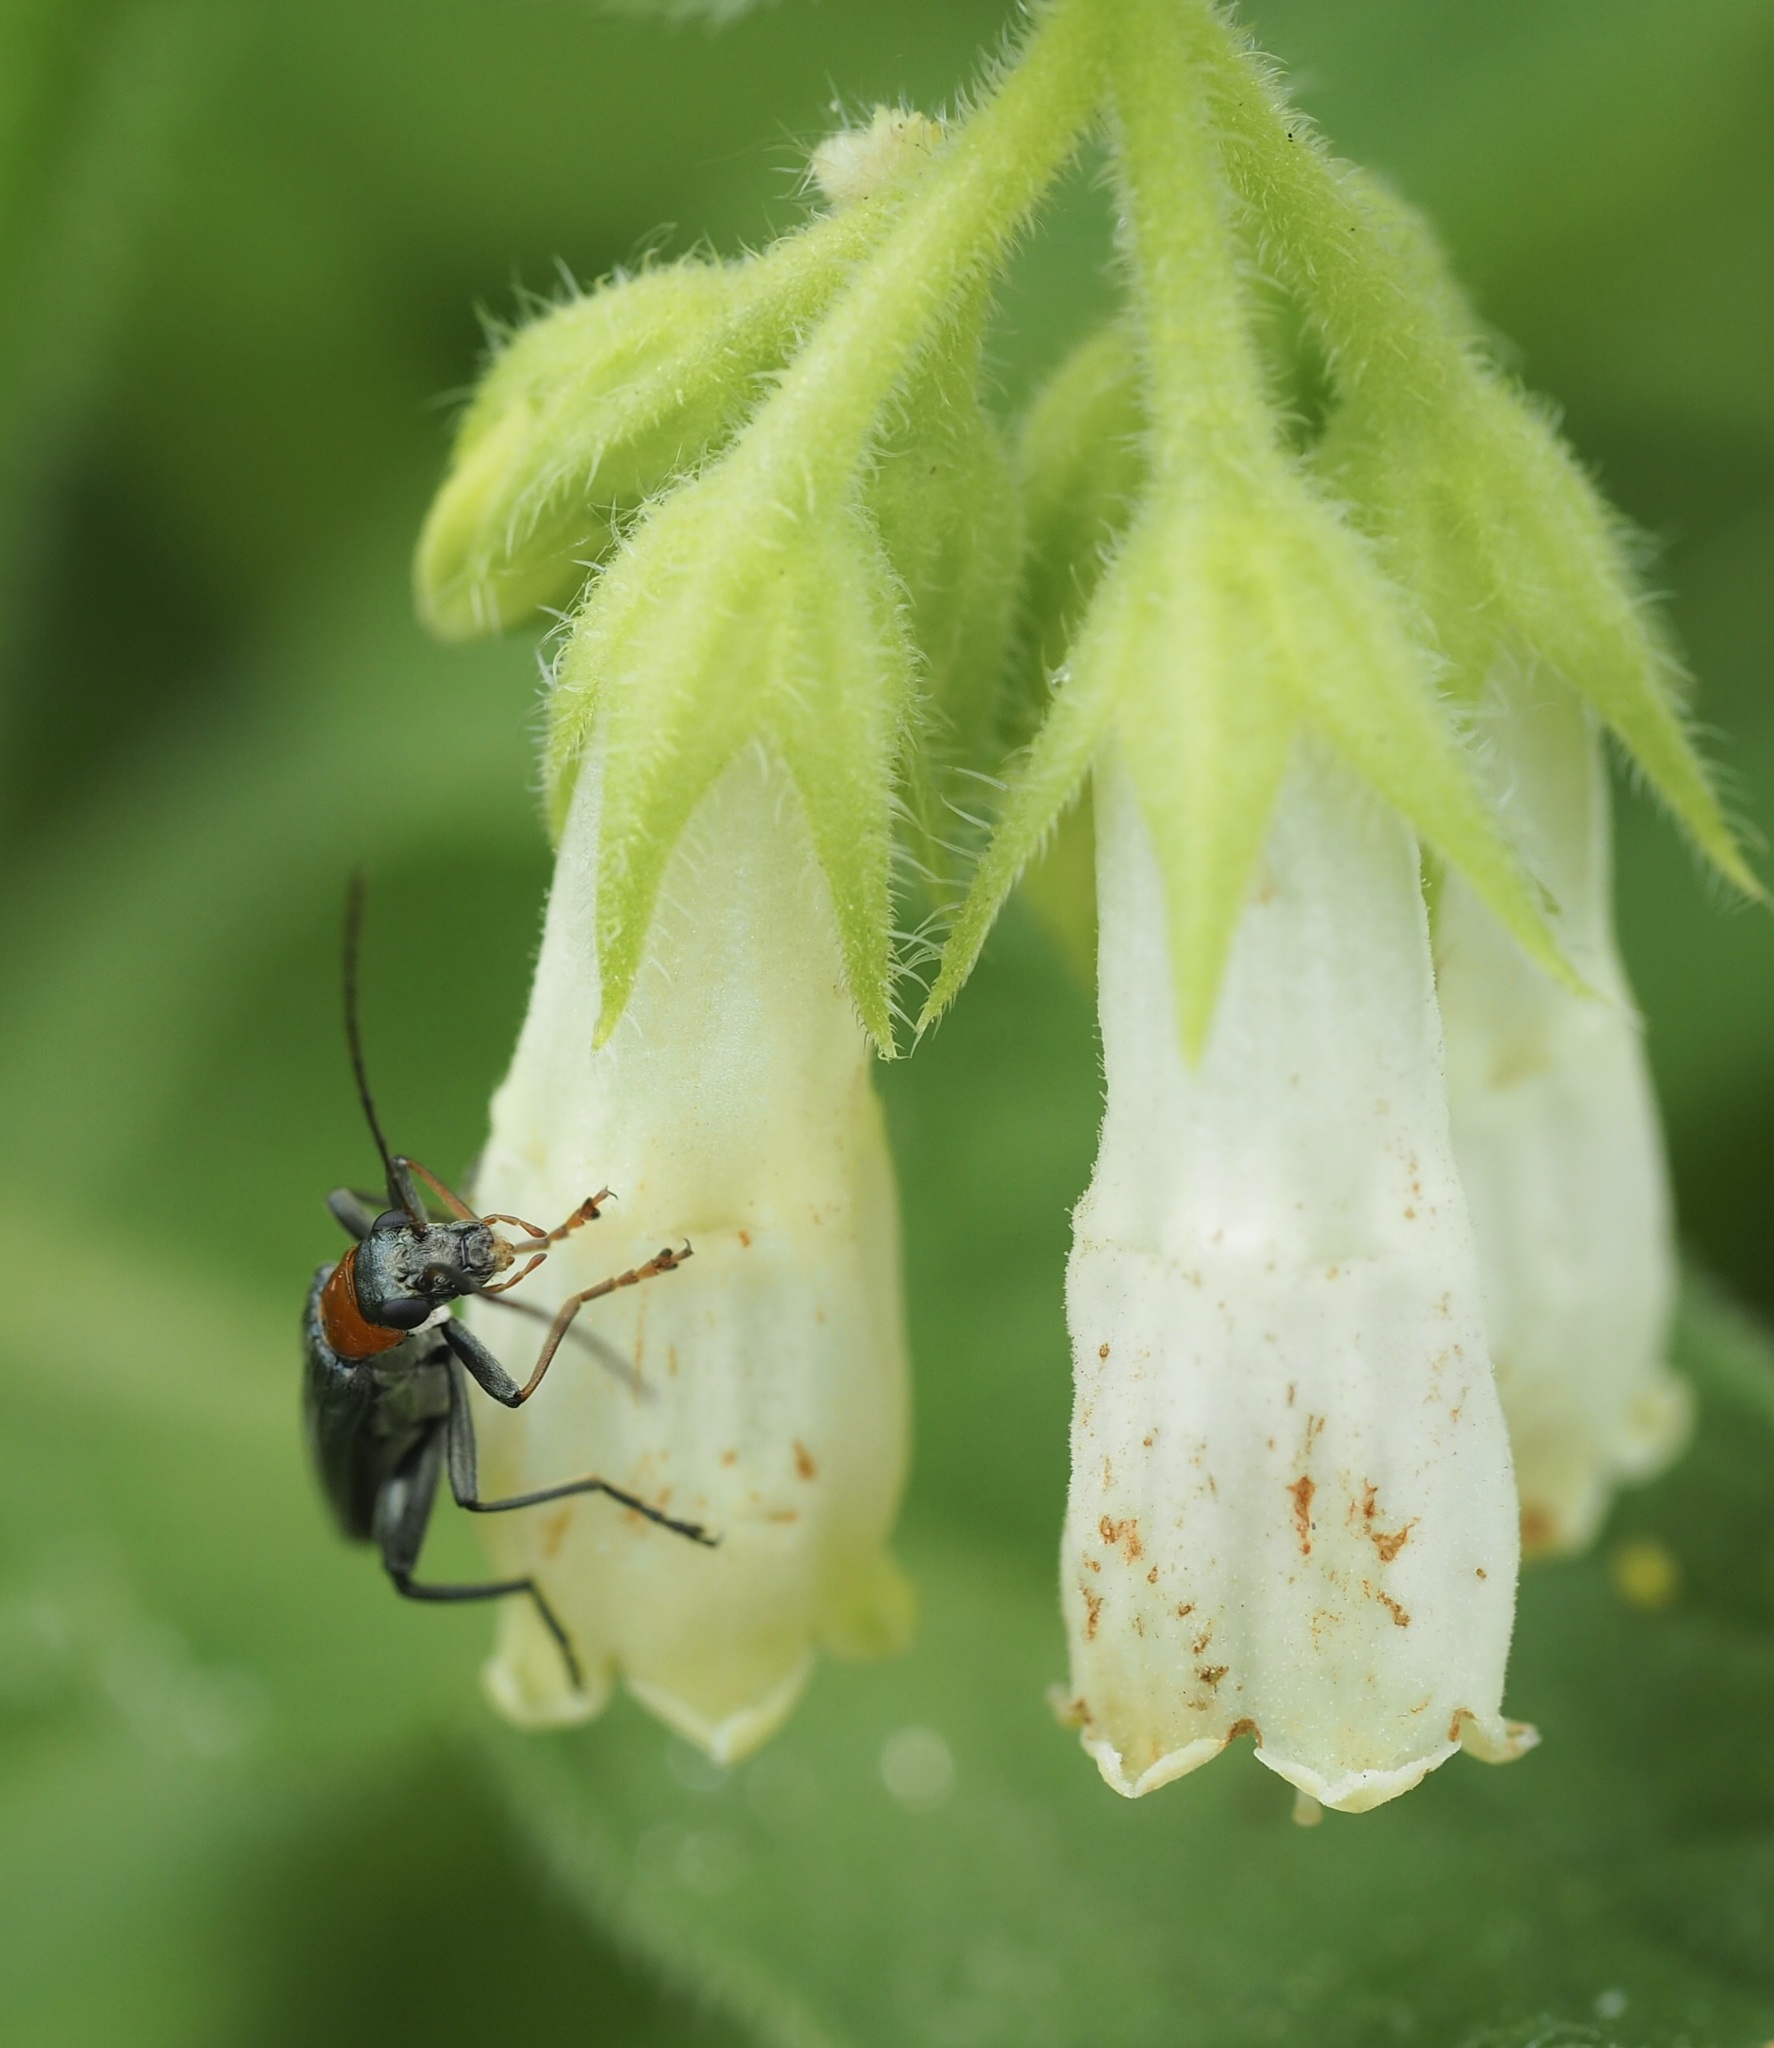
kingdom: Animalia
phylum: Arthropoda
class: Insecta
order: Coleoptera
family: Oedemeridae
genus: Oedemera
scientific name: Oedemera croceicollis
